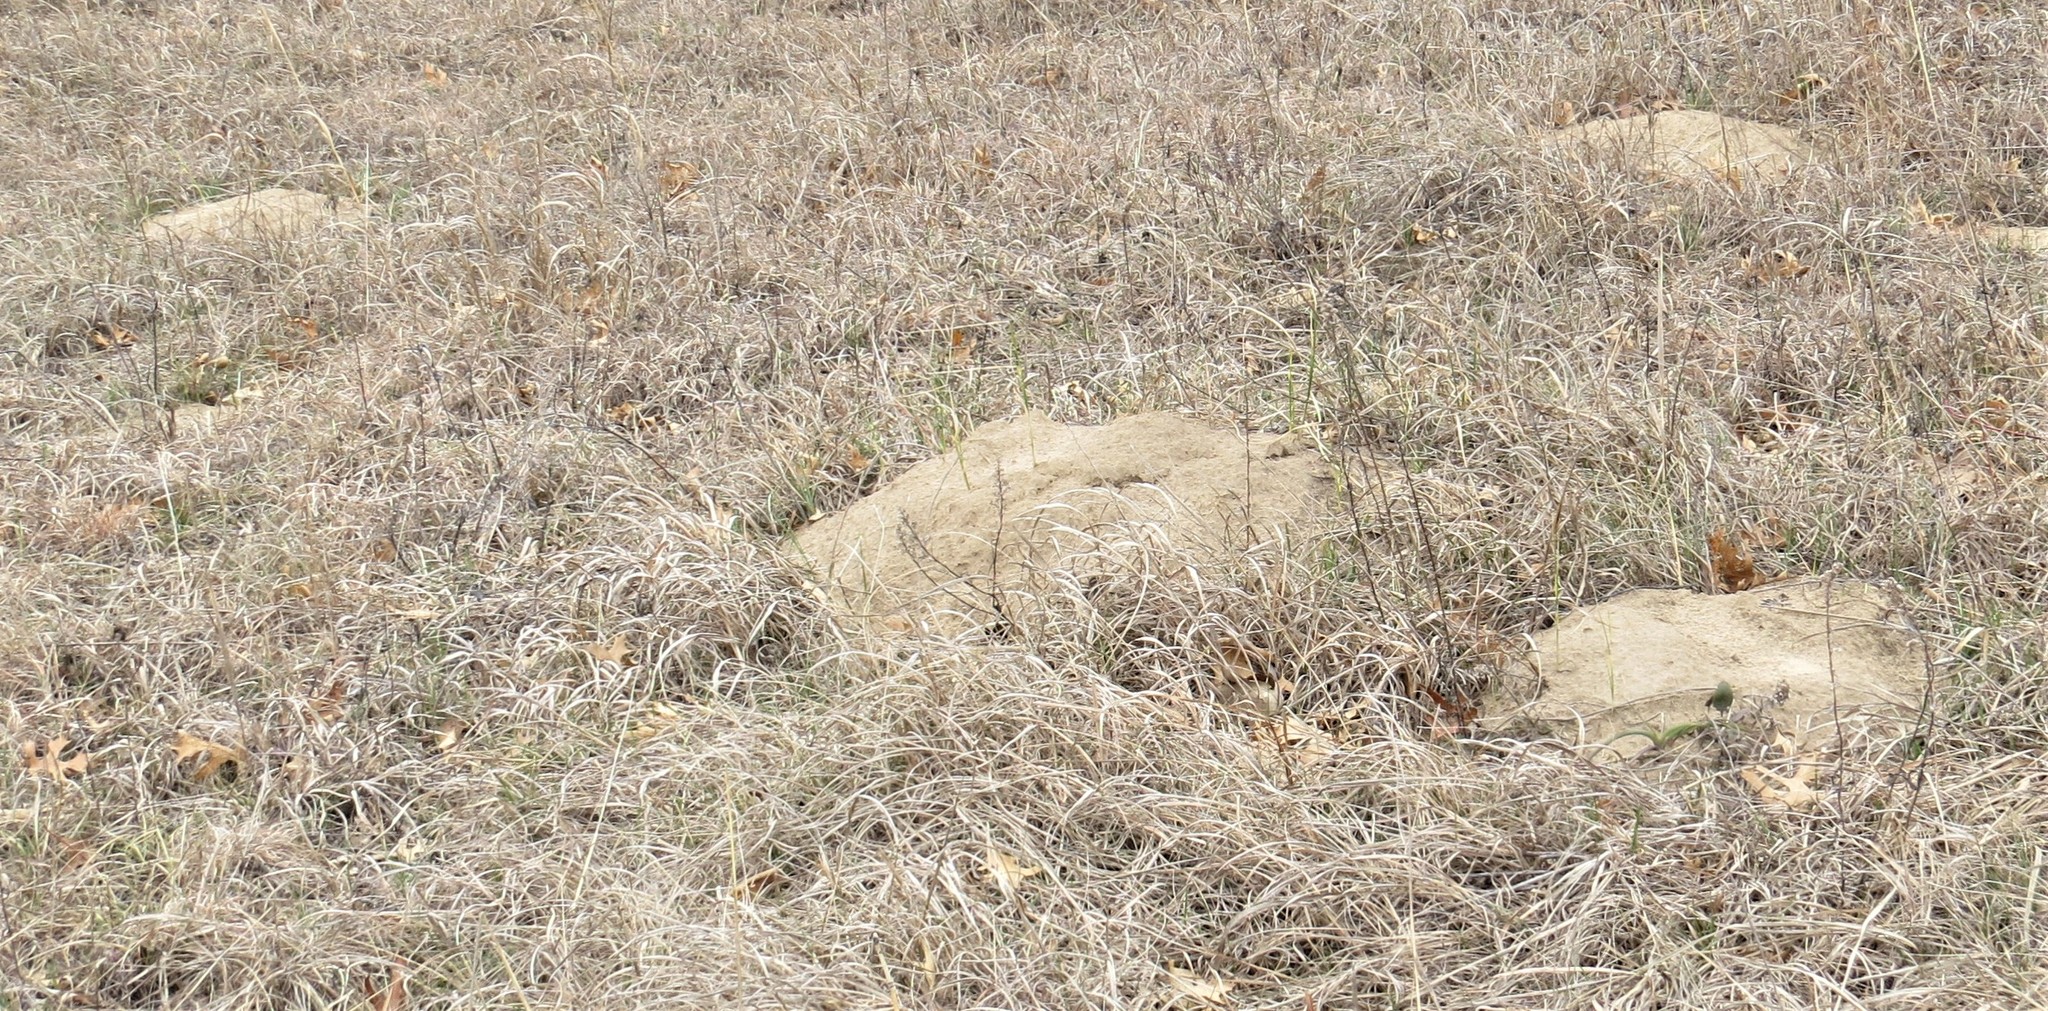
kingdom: Animalia
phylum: Chordata
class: Mammalia
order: Rodentia
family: Geomyidae
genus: Geomys
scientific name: Geomys bursarius
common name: Plains pocket gopher
